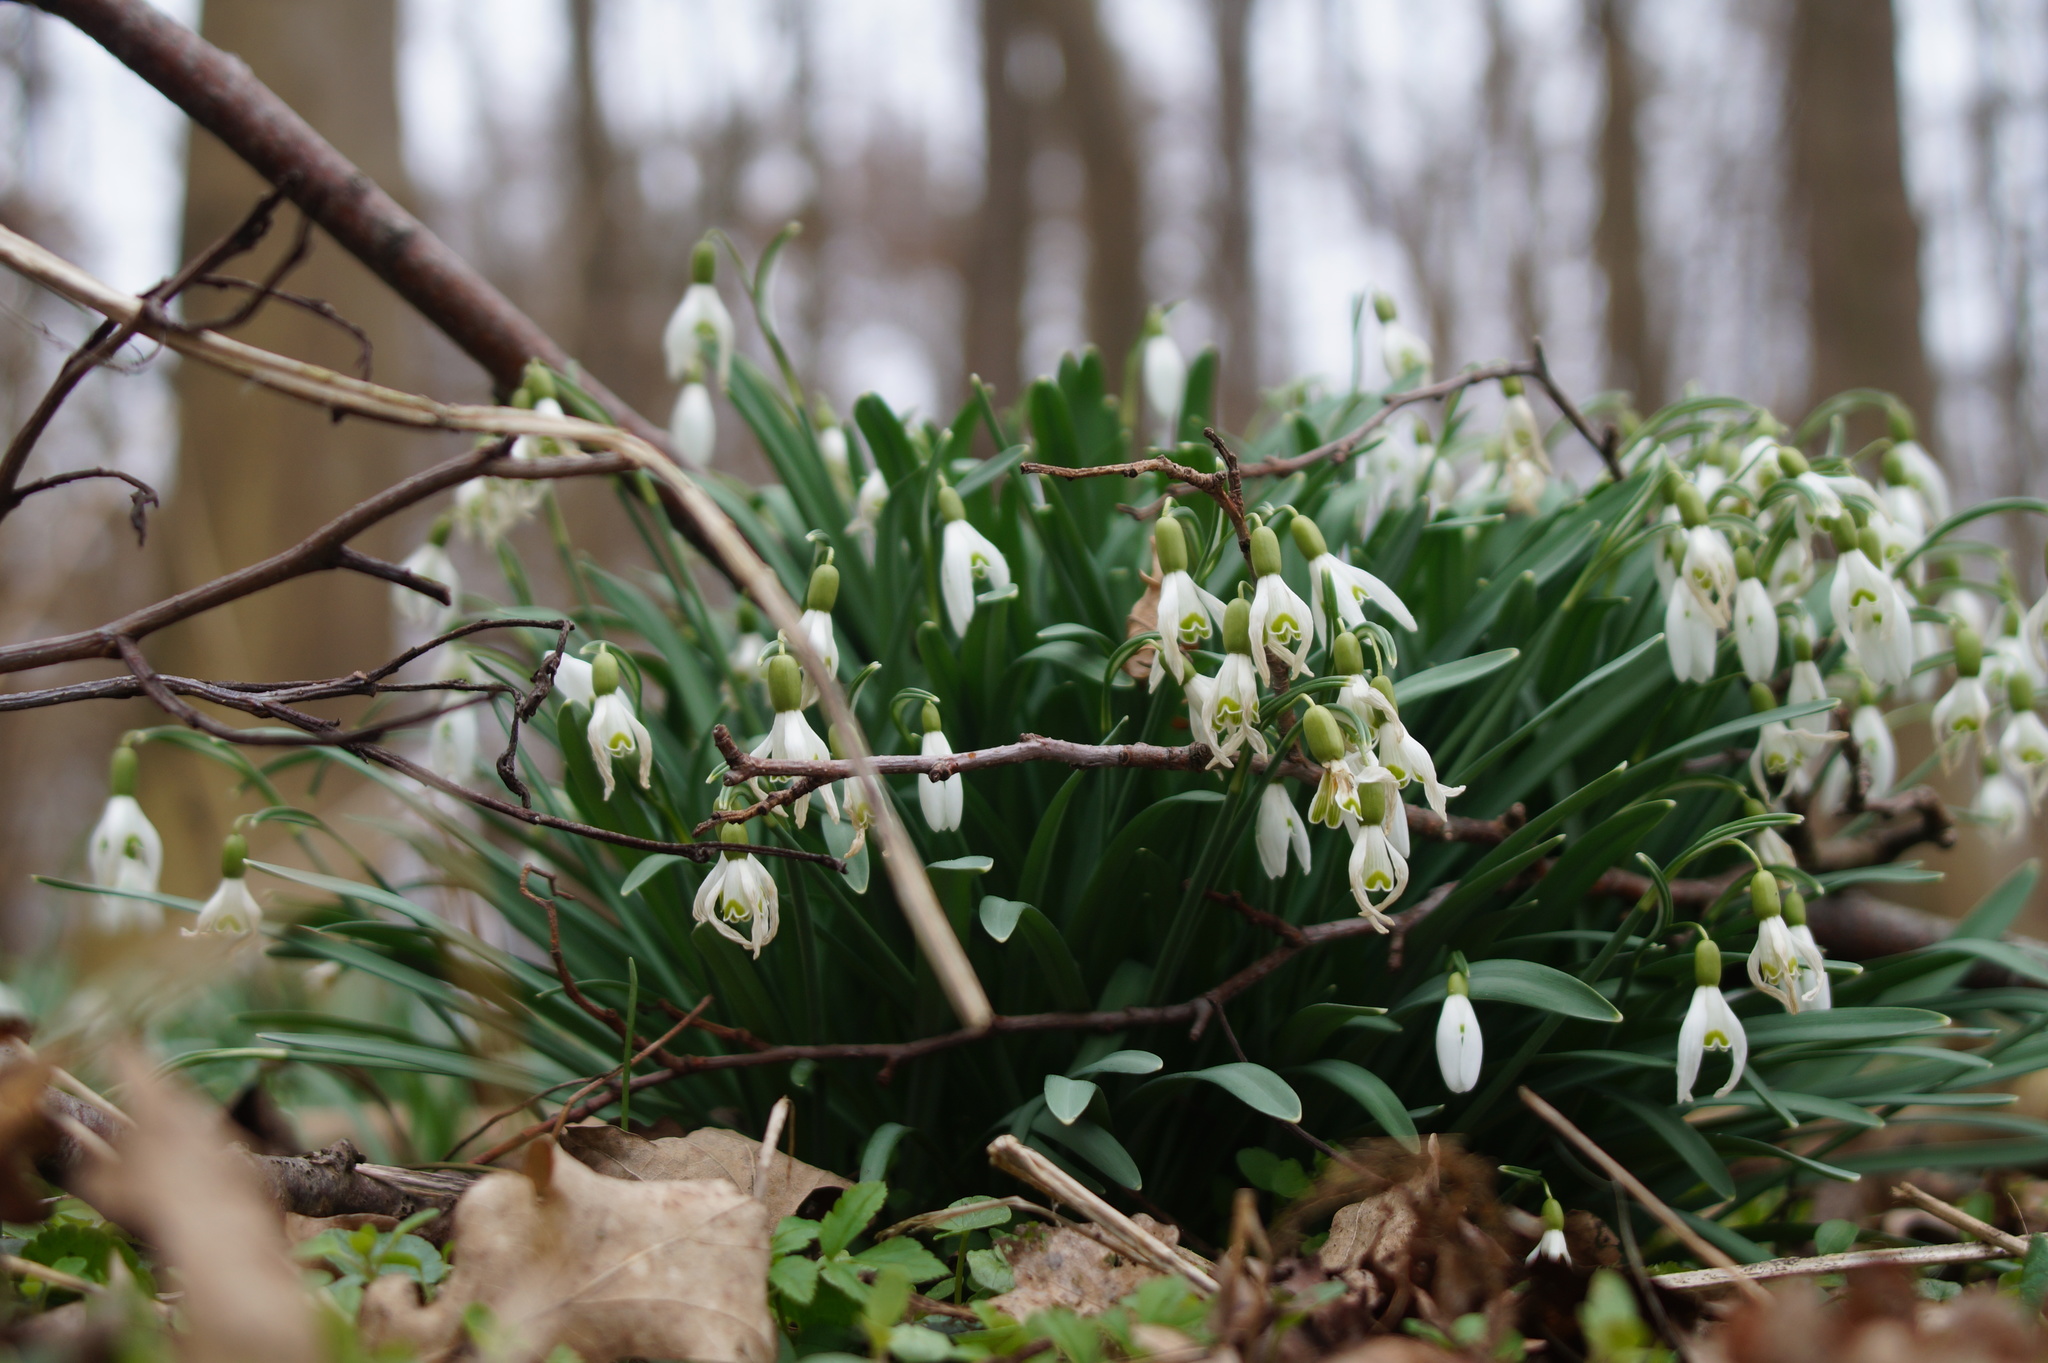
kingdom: Plantae
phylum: Tracheophyta
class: Liliopsida
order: Asparagales
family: Amaryllidaceae
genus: Galanthus
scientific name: Galanthus nivalis
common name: Snowdrop
